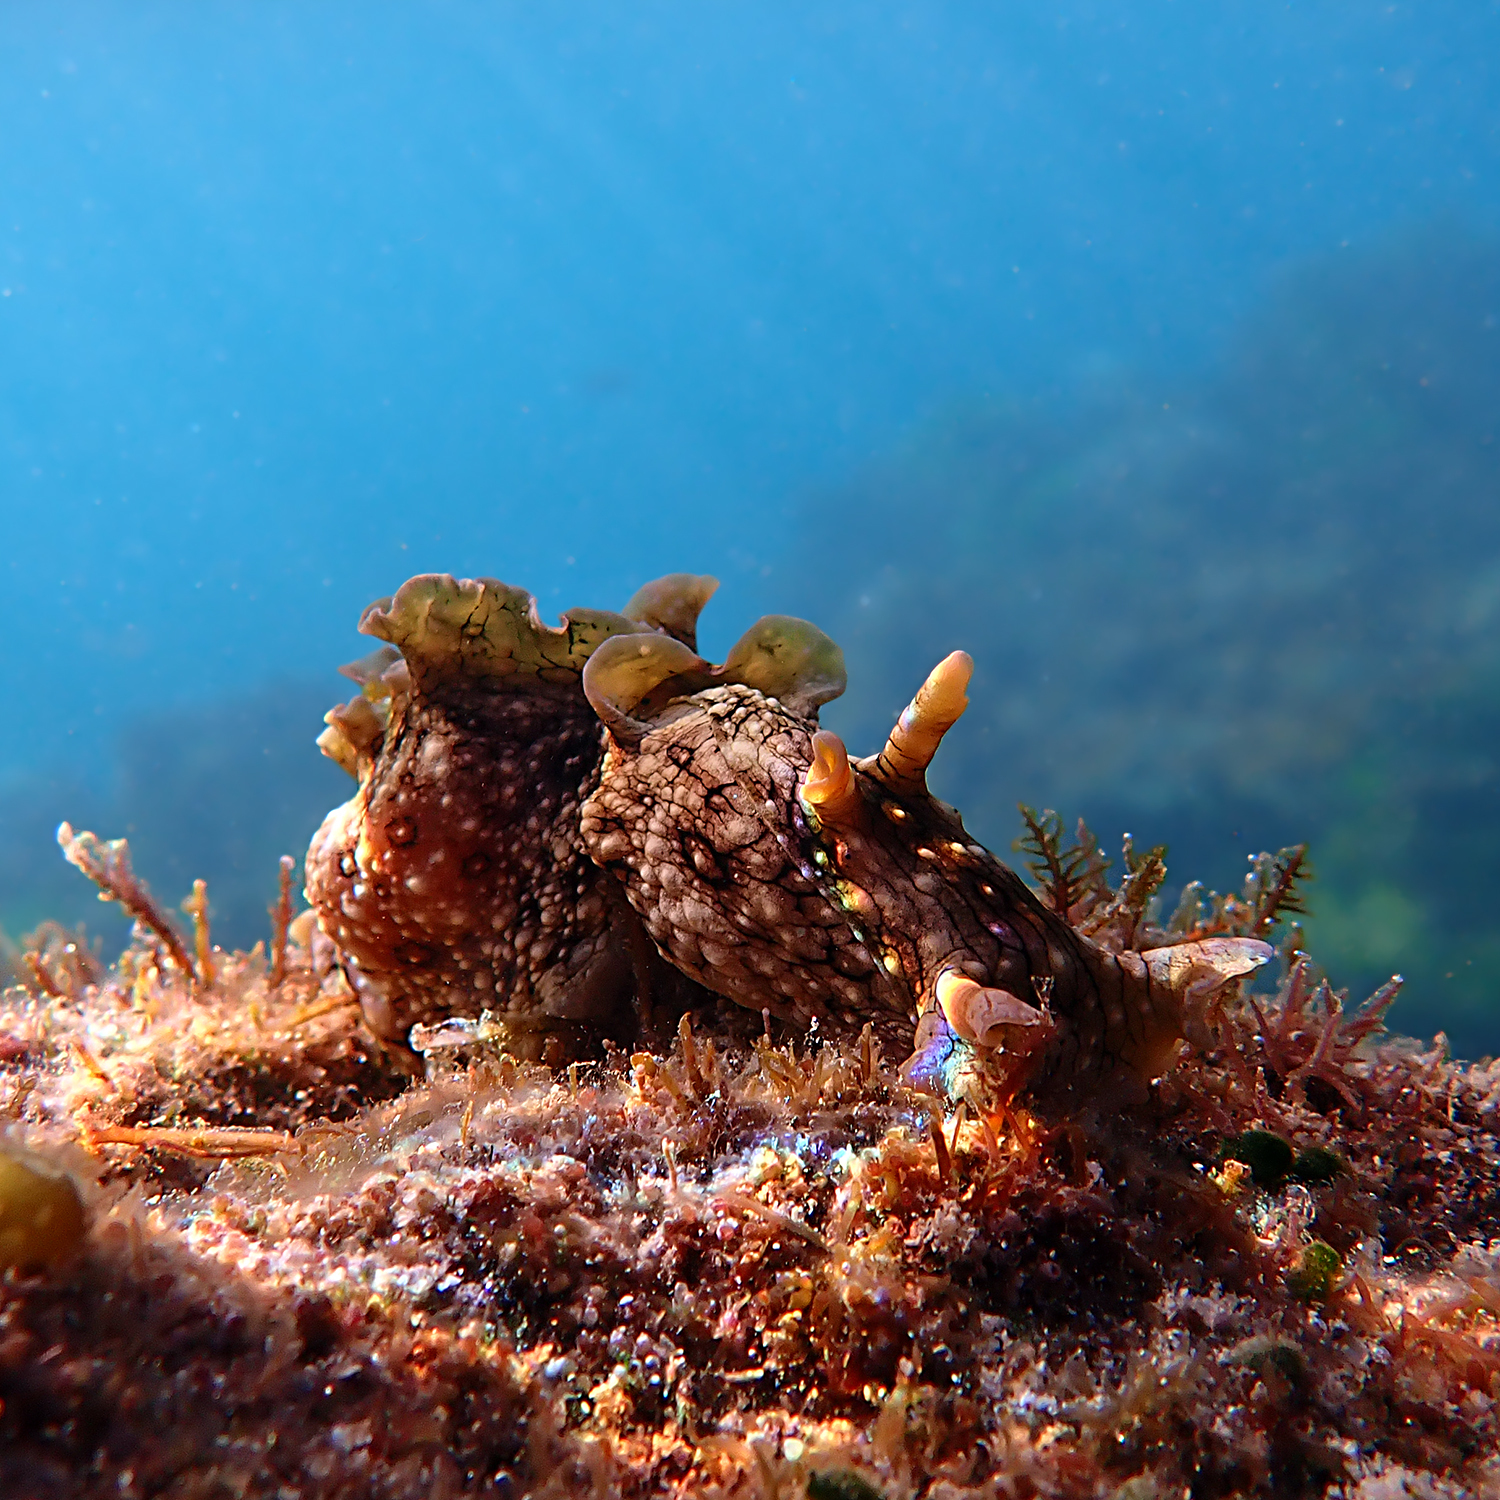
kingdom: Animalia
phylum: Mollusca
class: Gastropoda
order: Aplysiida
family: Aplysiidae
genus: Aplysia
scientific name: Aplysia argus
